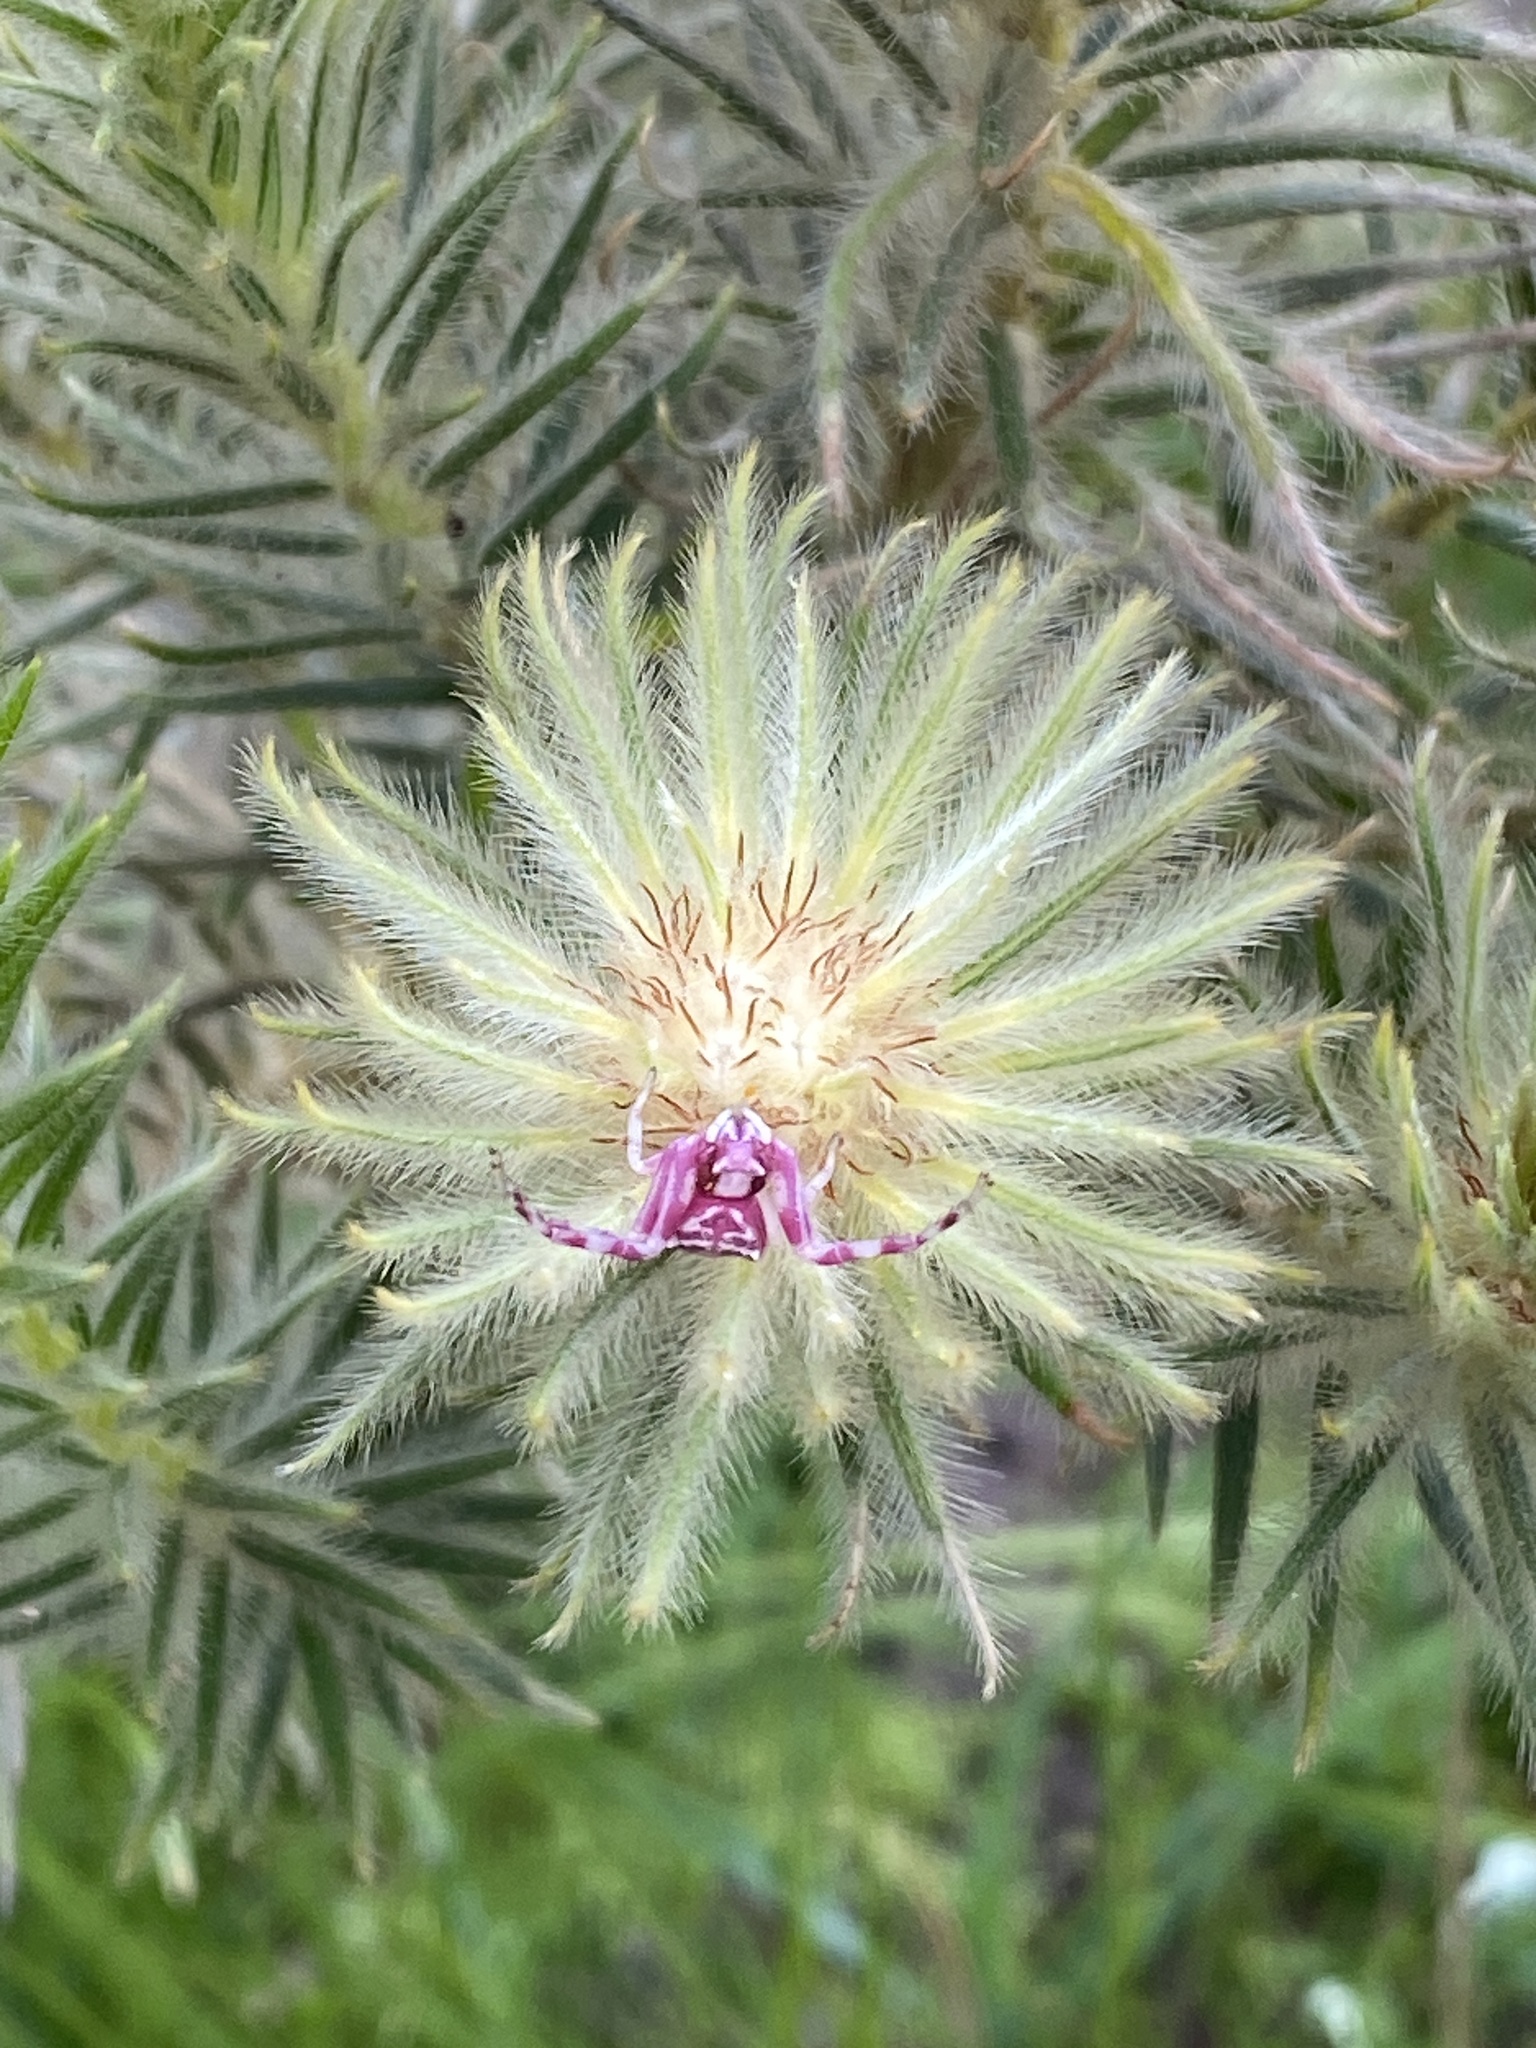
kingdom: Animalia
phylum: Arthropoda
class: Arachnida
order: Araneae
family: Thomisidae
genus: Thomisus
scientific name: Thomisus citrinellus
